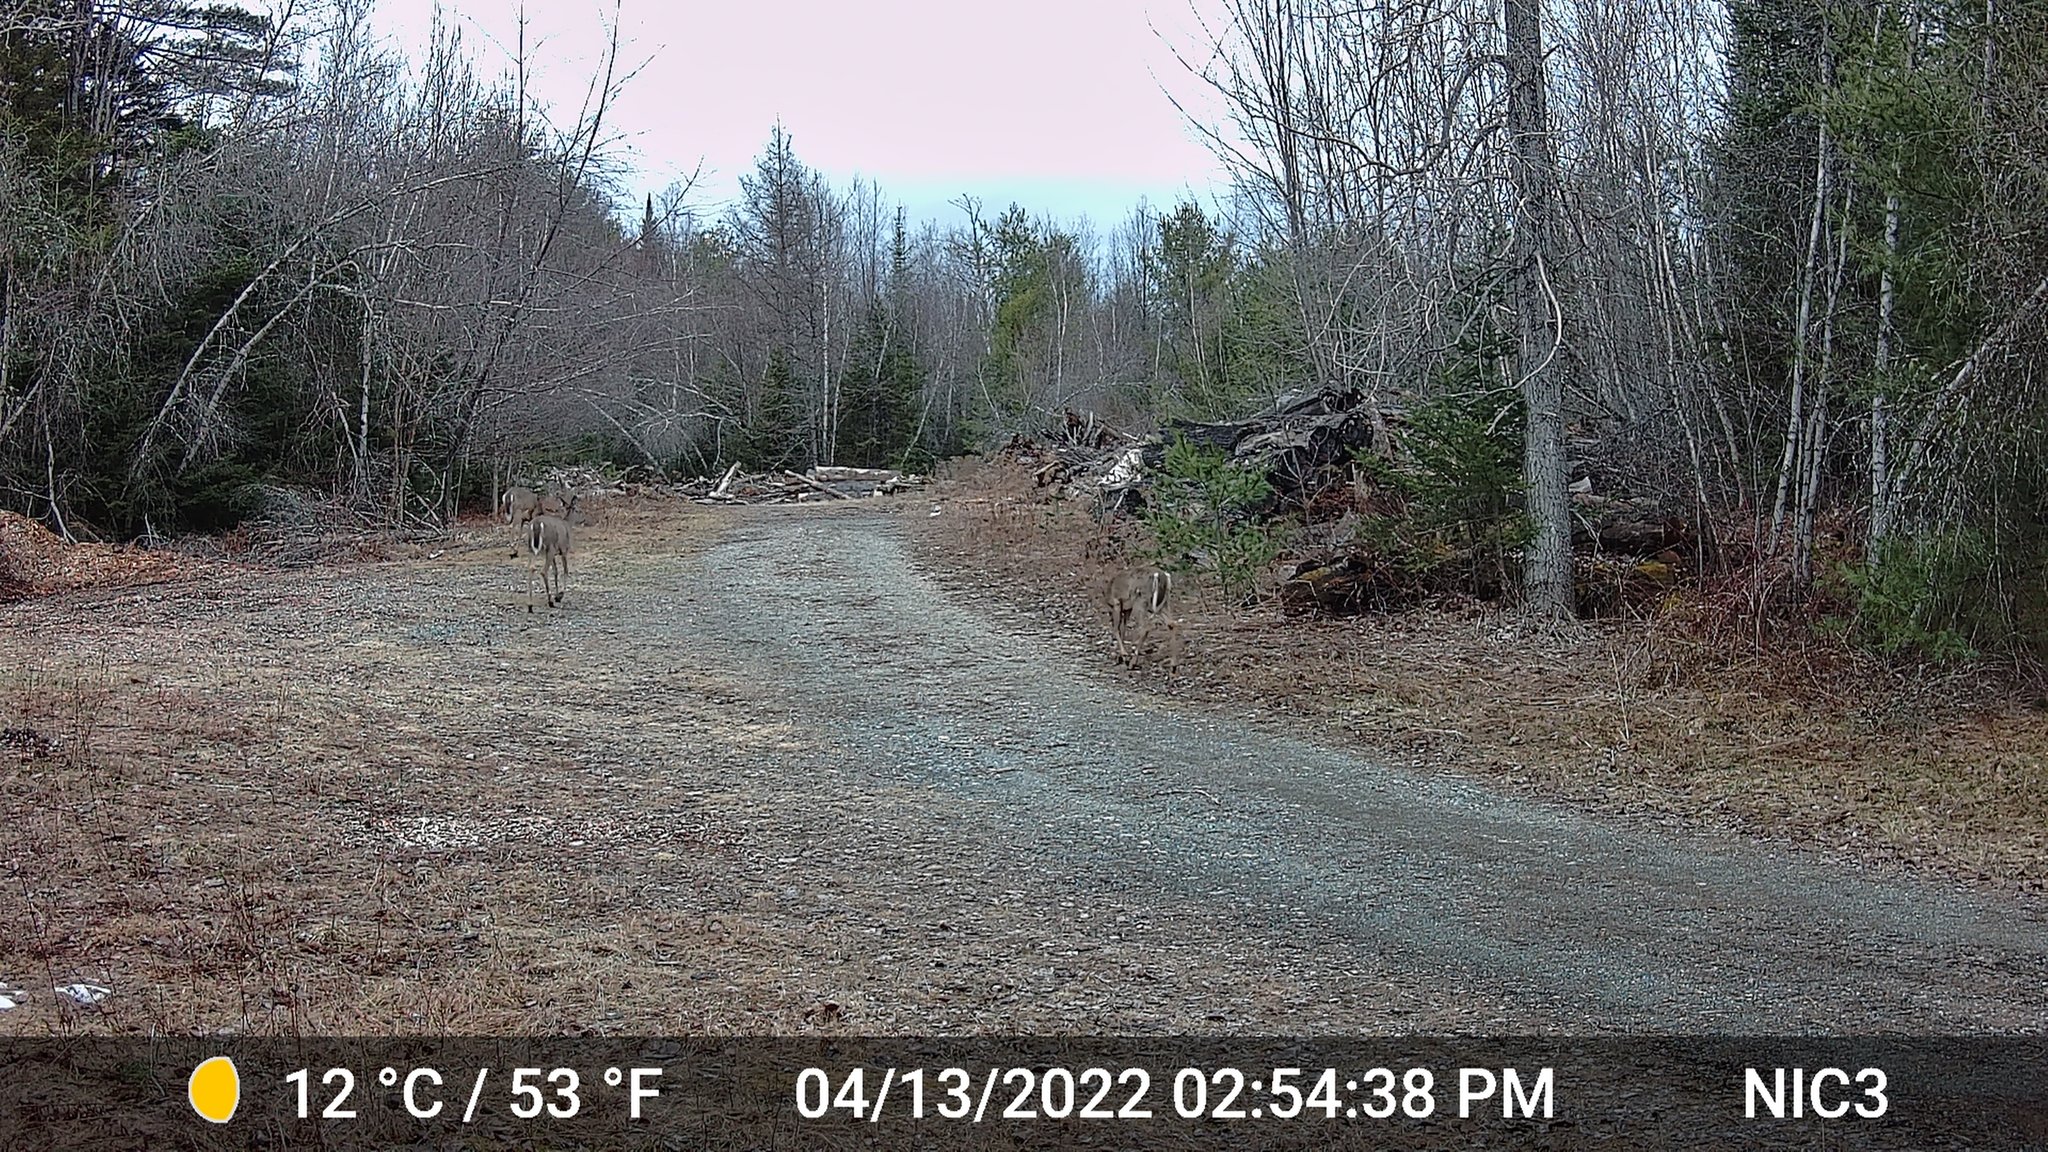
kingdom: Animalia
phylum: Chordata
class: Mammalia
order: Artiodactyla
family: Cervidae
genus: Odocoileus
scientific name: Odocoileus virginianus
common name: White-tailed deer
